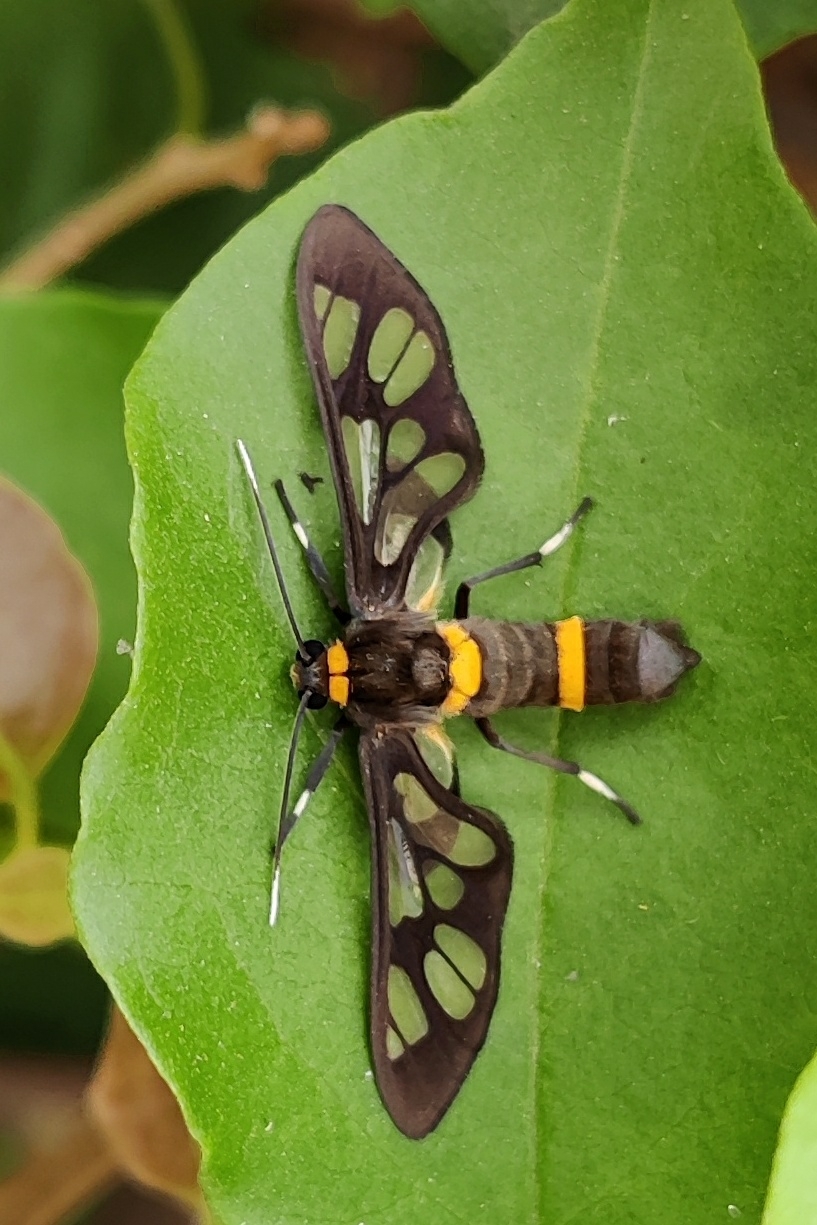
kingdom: Animalia
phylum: Arthropoda
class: Insecta
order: Lepidoptera
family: Erebidae
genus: Syntomoides
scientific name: Syntomoides imaon
